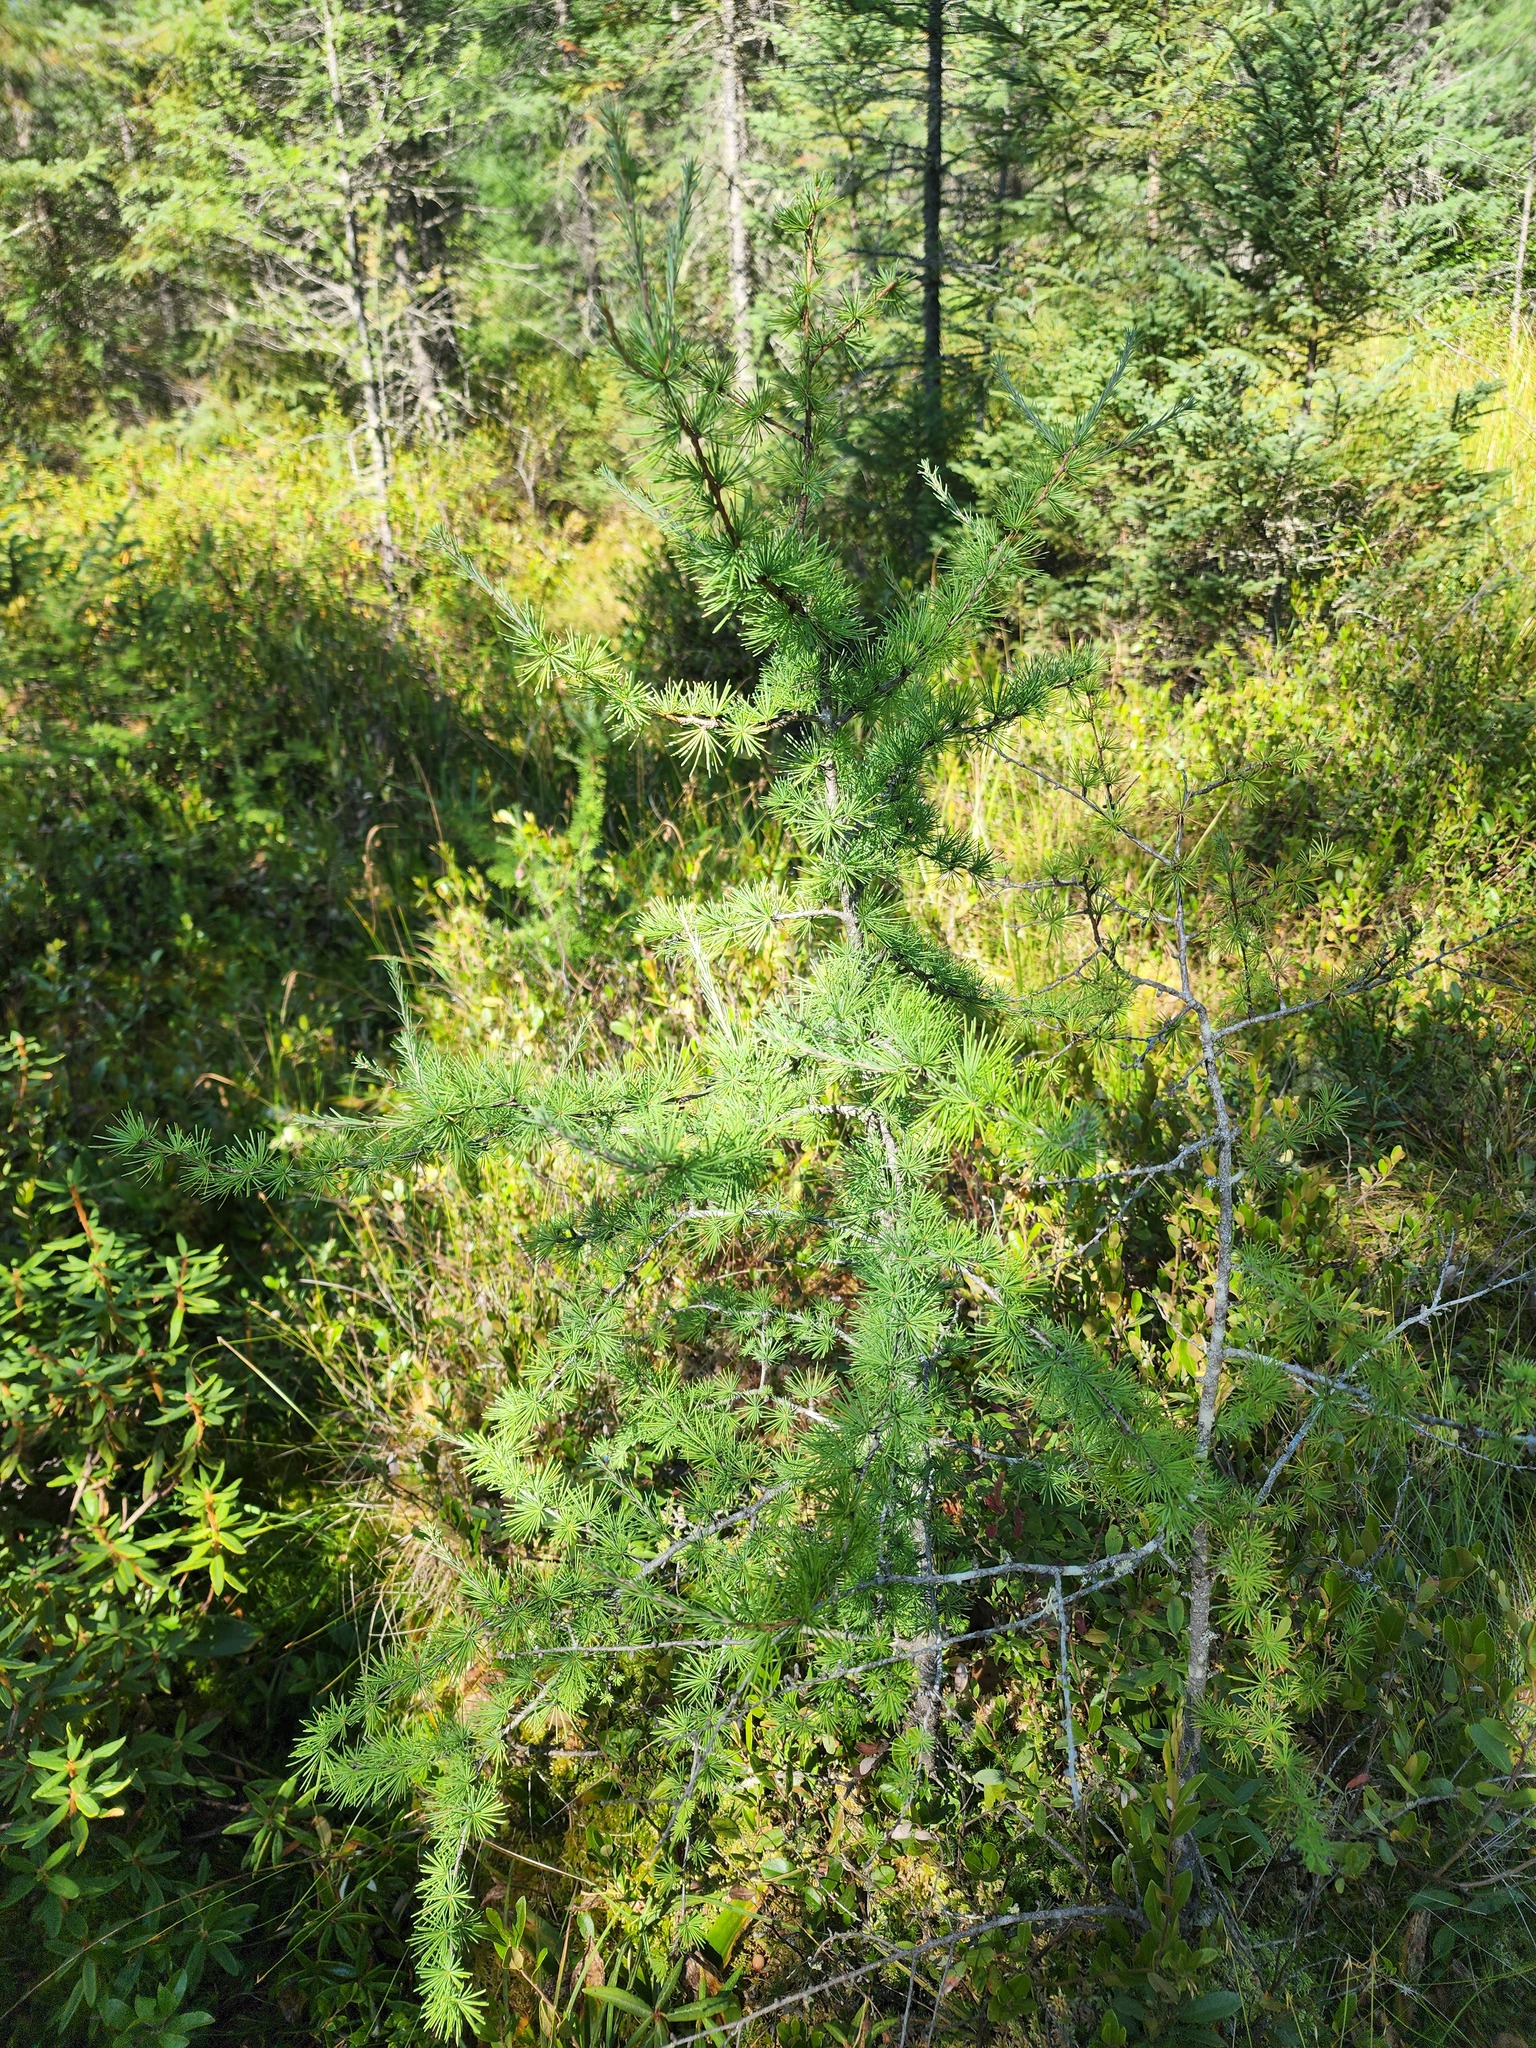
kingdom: Plantae
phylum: Tracheophyta
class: Pinopsida
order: Pinales
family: Pinaceae
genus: Larix
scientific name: Larix laricina
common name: American larch
